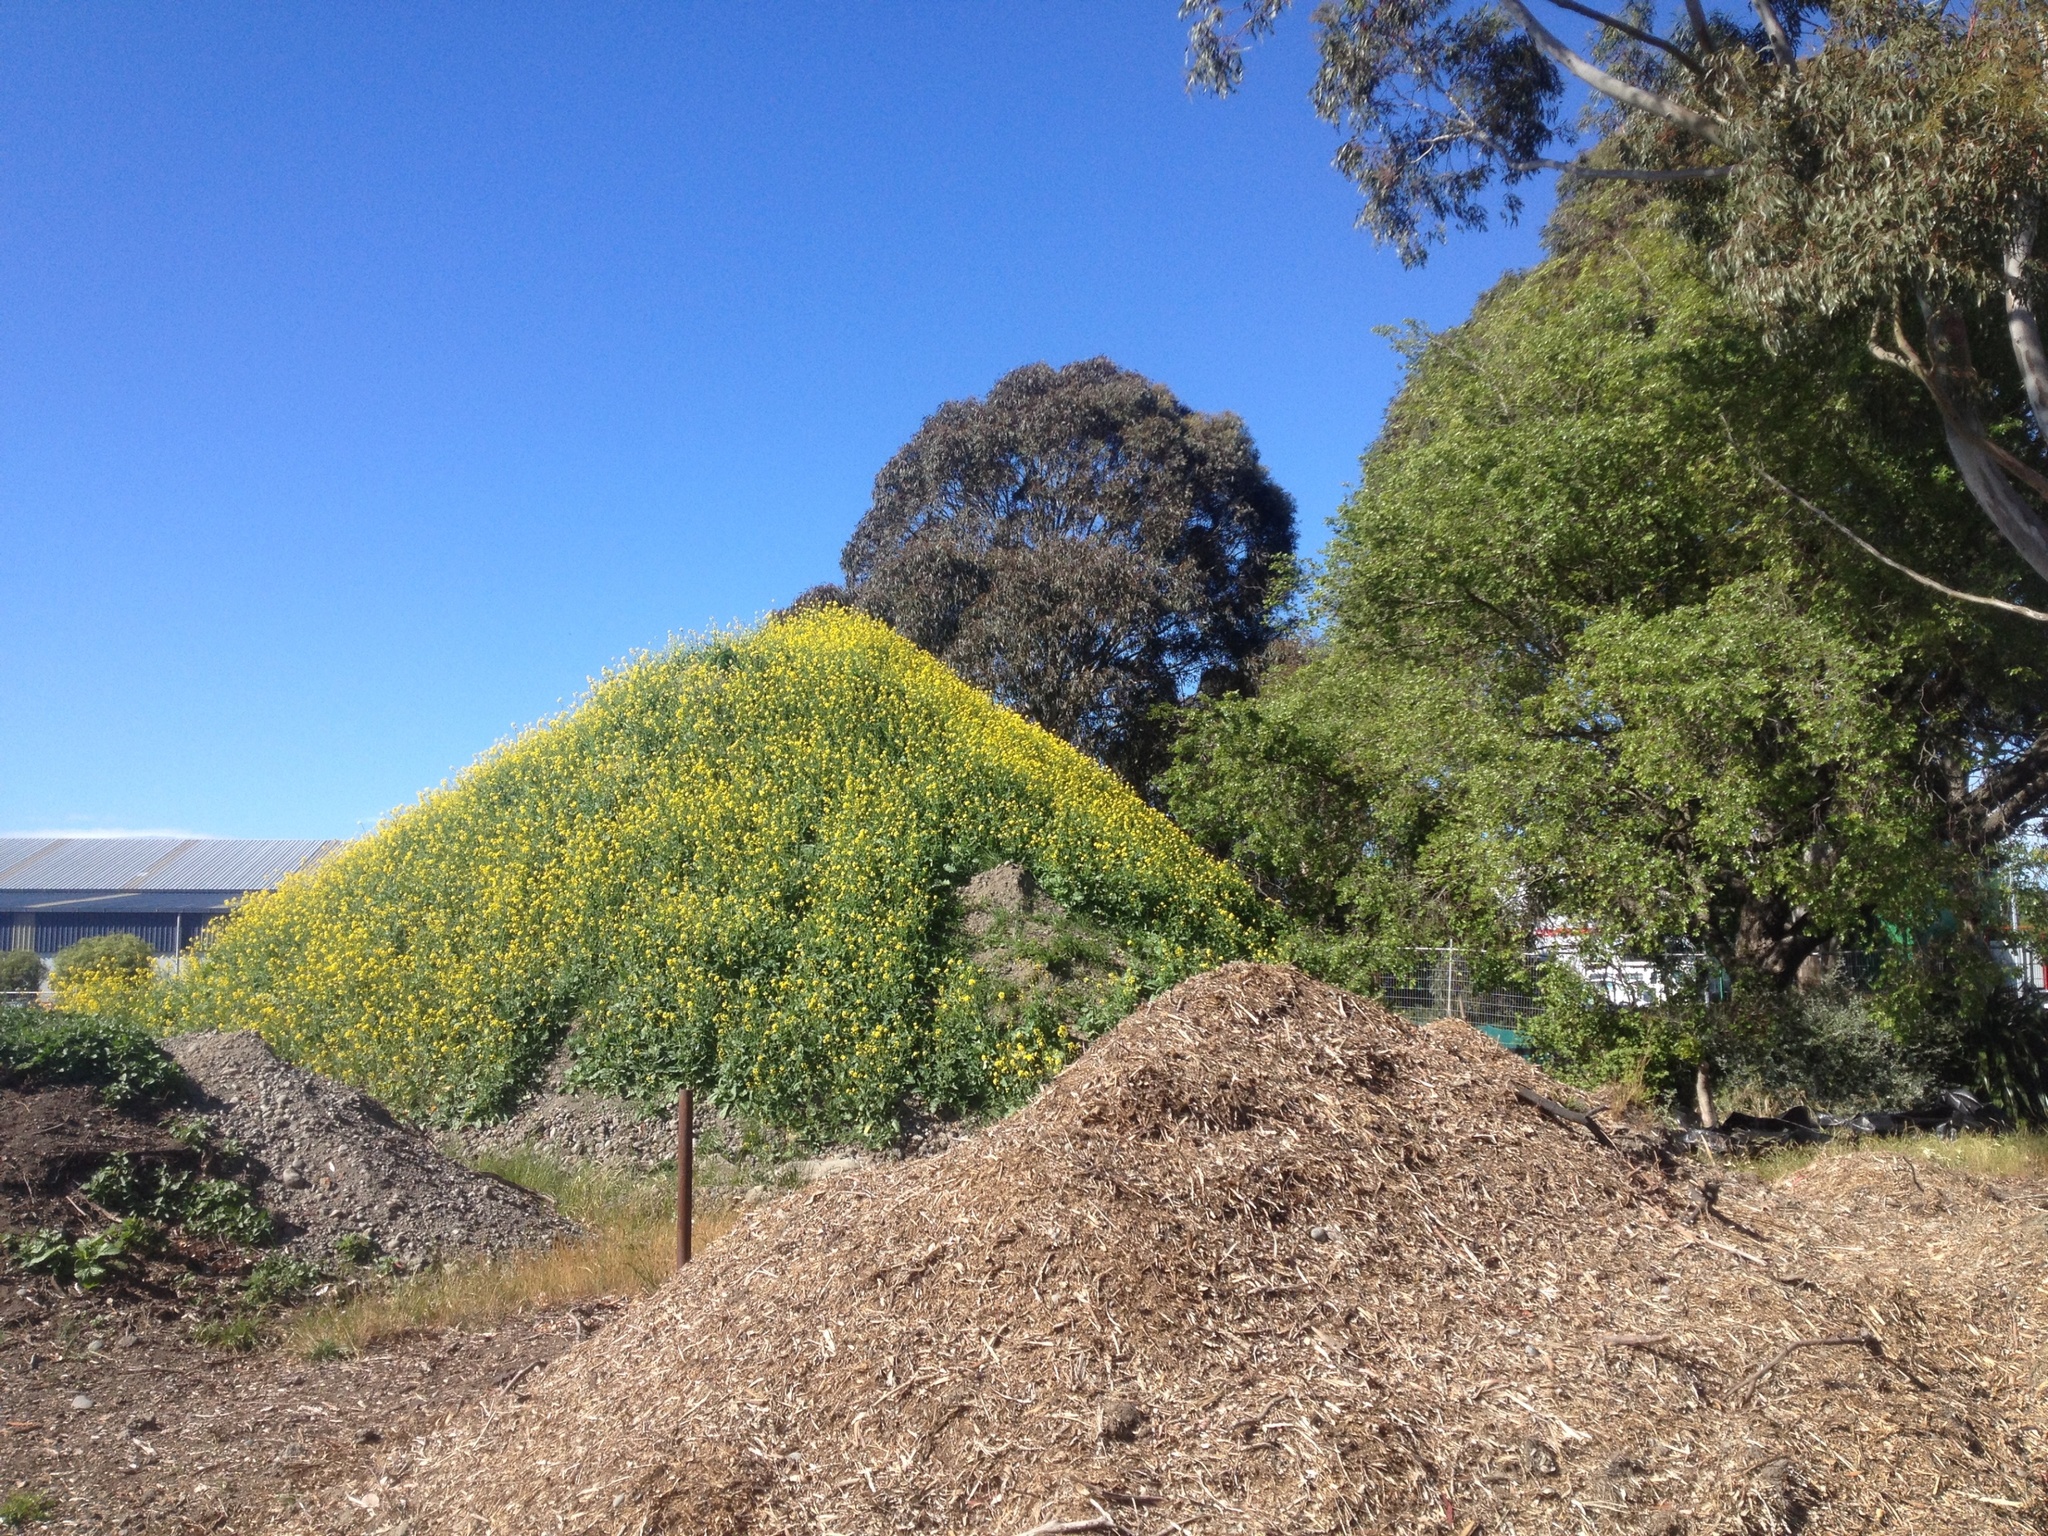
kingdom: Plantae
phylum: Tracheophyta
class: Magnoliopsida
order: Brassicales
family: Brassicaceae
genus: Brassica
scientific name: Brassica rapa
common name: Field mustard
